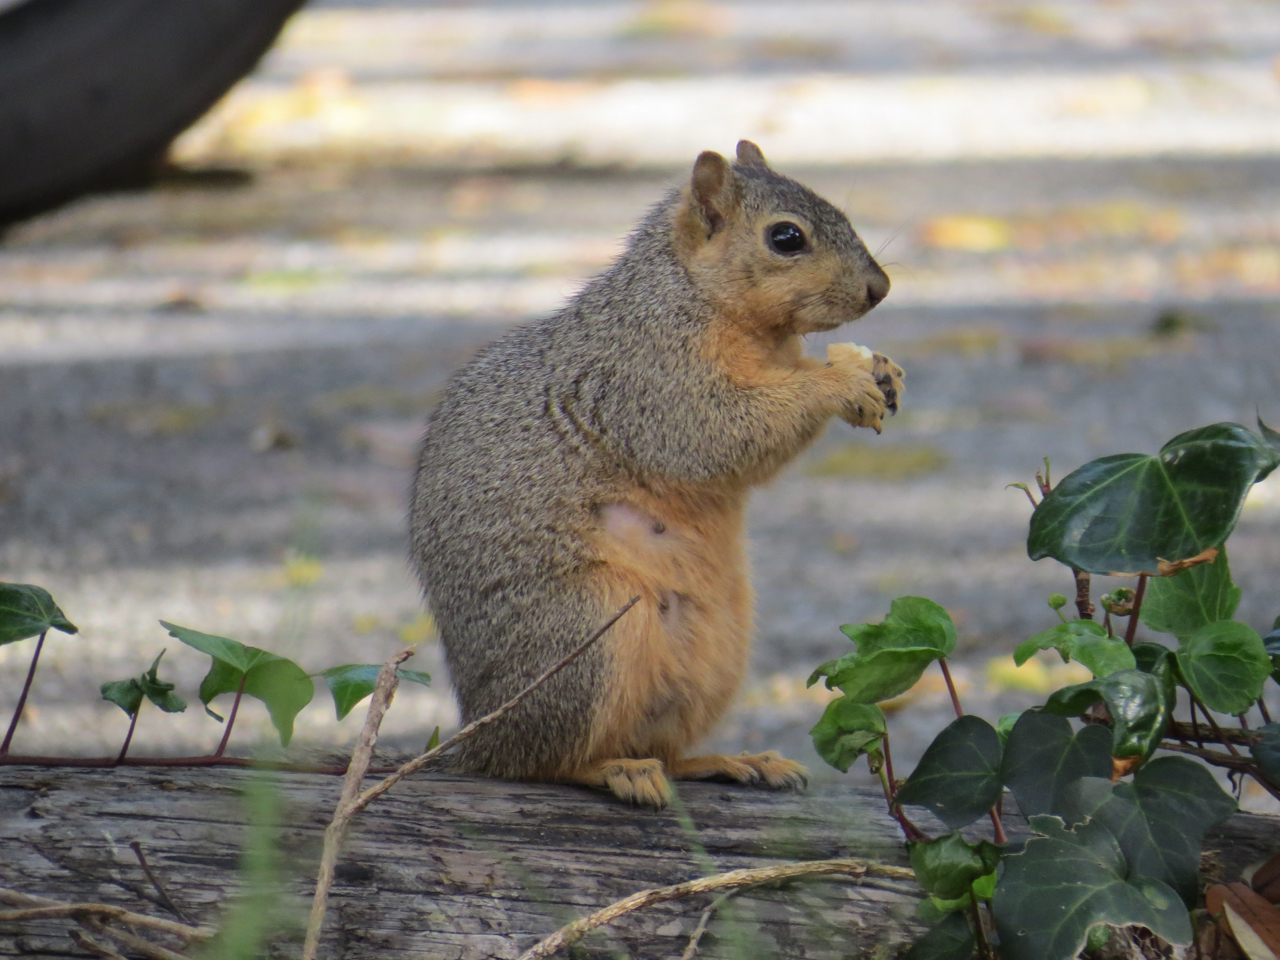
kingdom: Animalia
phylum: Chordata
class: Mammalia
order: Rodentia
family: Sciuridae
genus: Sciurus
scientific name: Sciurus niger
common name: Fox squirrel
